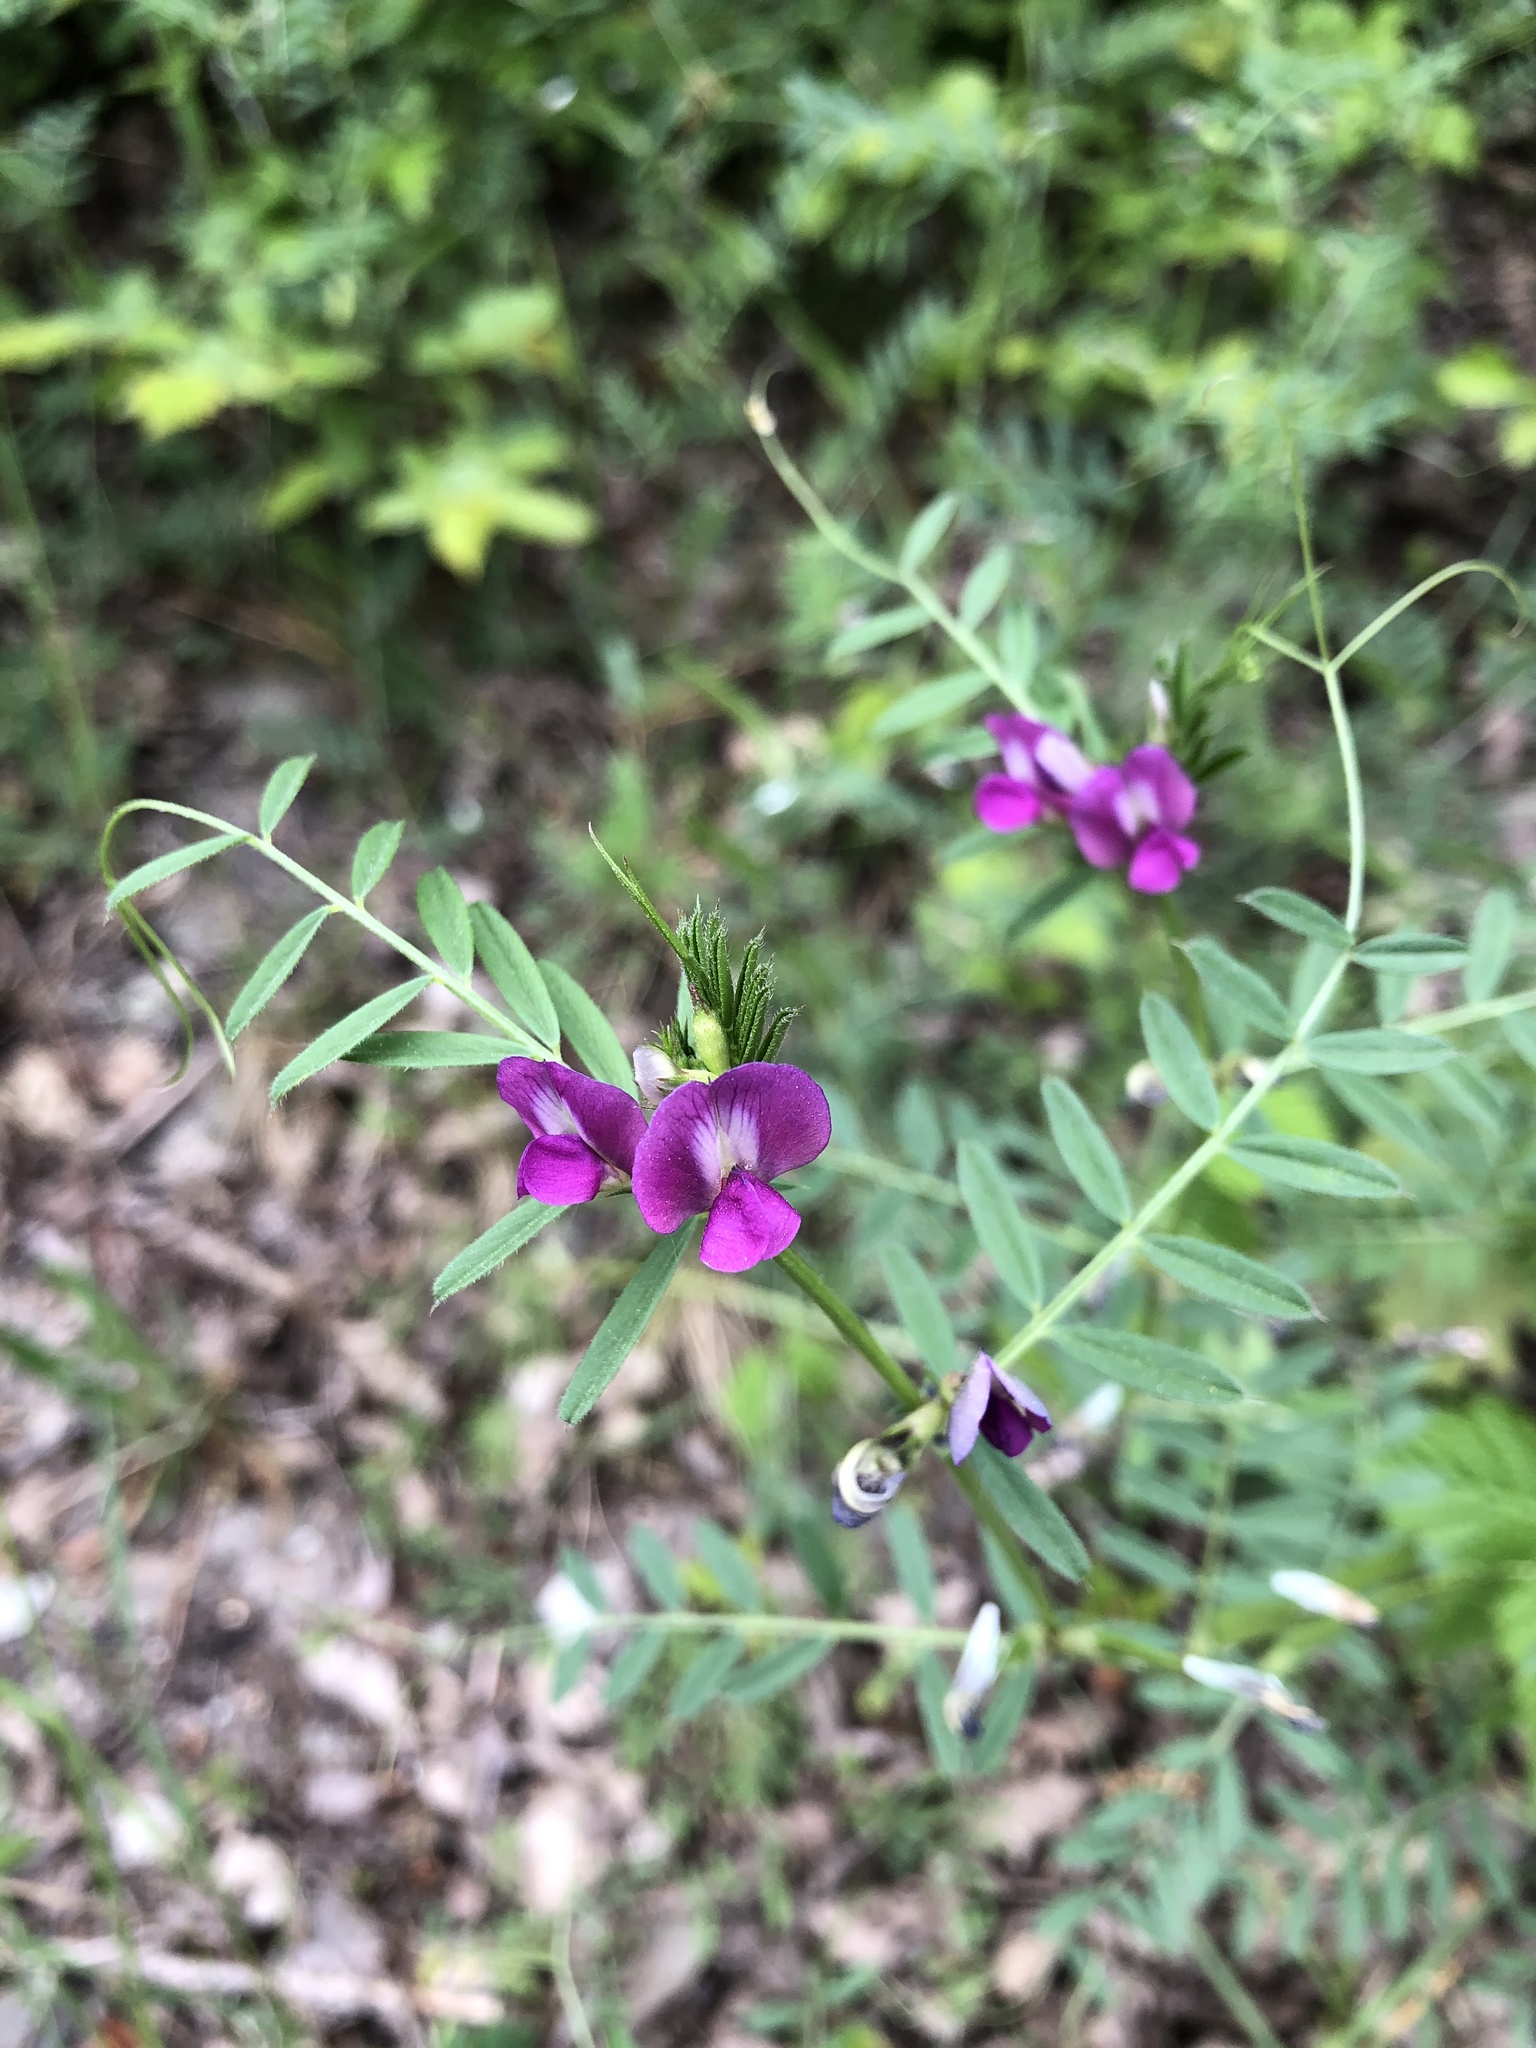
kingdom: Plantae
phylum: Tracheophyta
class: Magnoliopsida
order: Fabales
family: Fabaceae
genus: Vicia
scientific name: Vicia sativa
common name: Garden vetch
